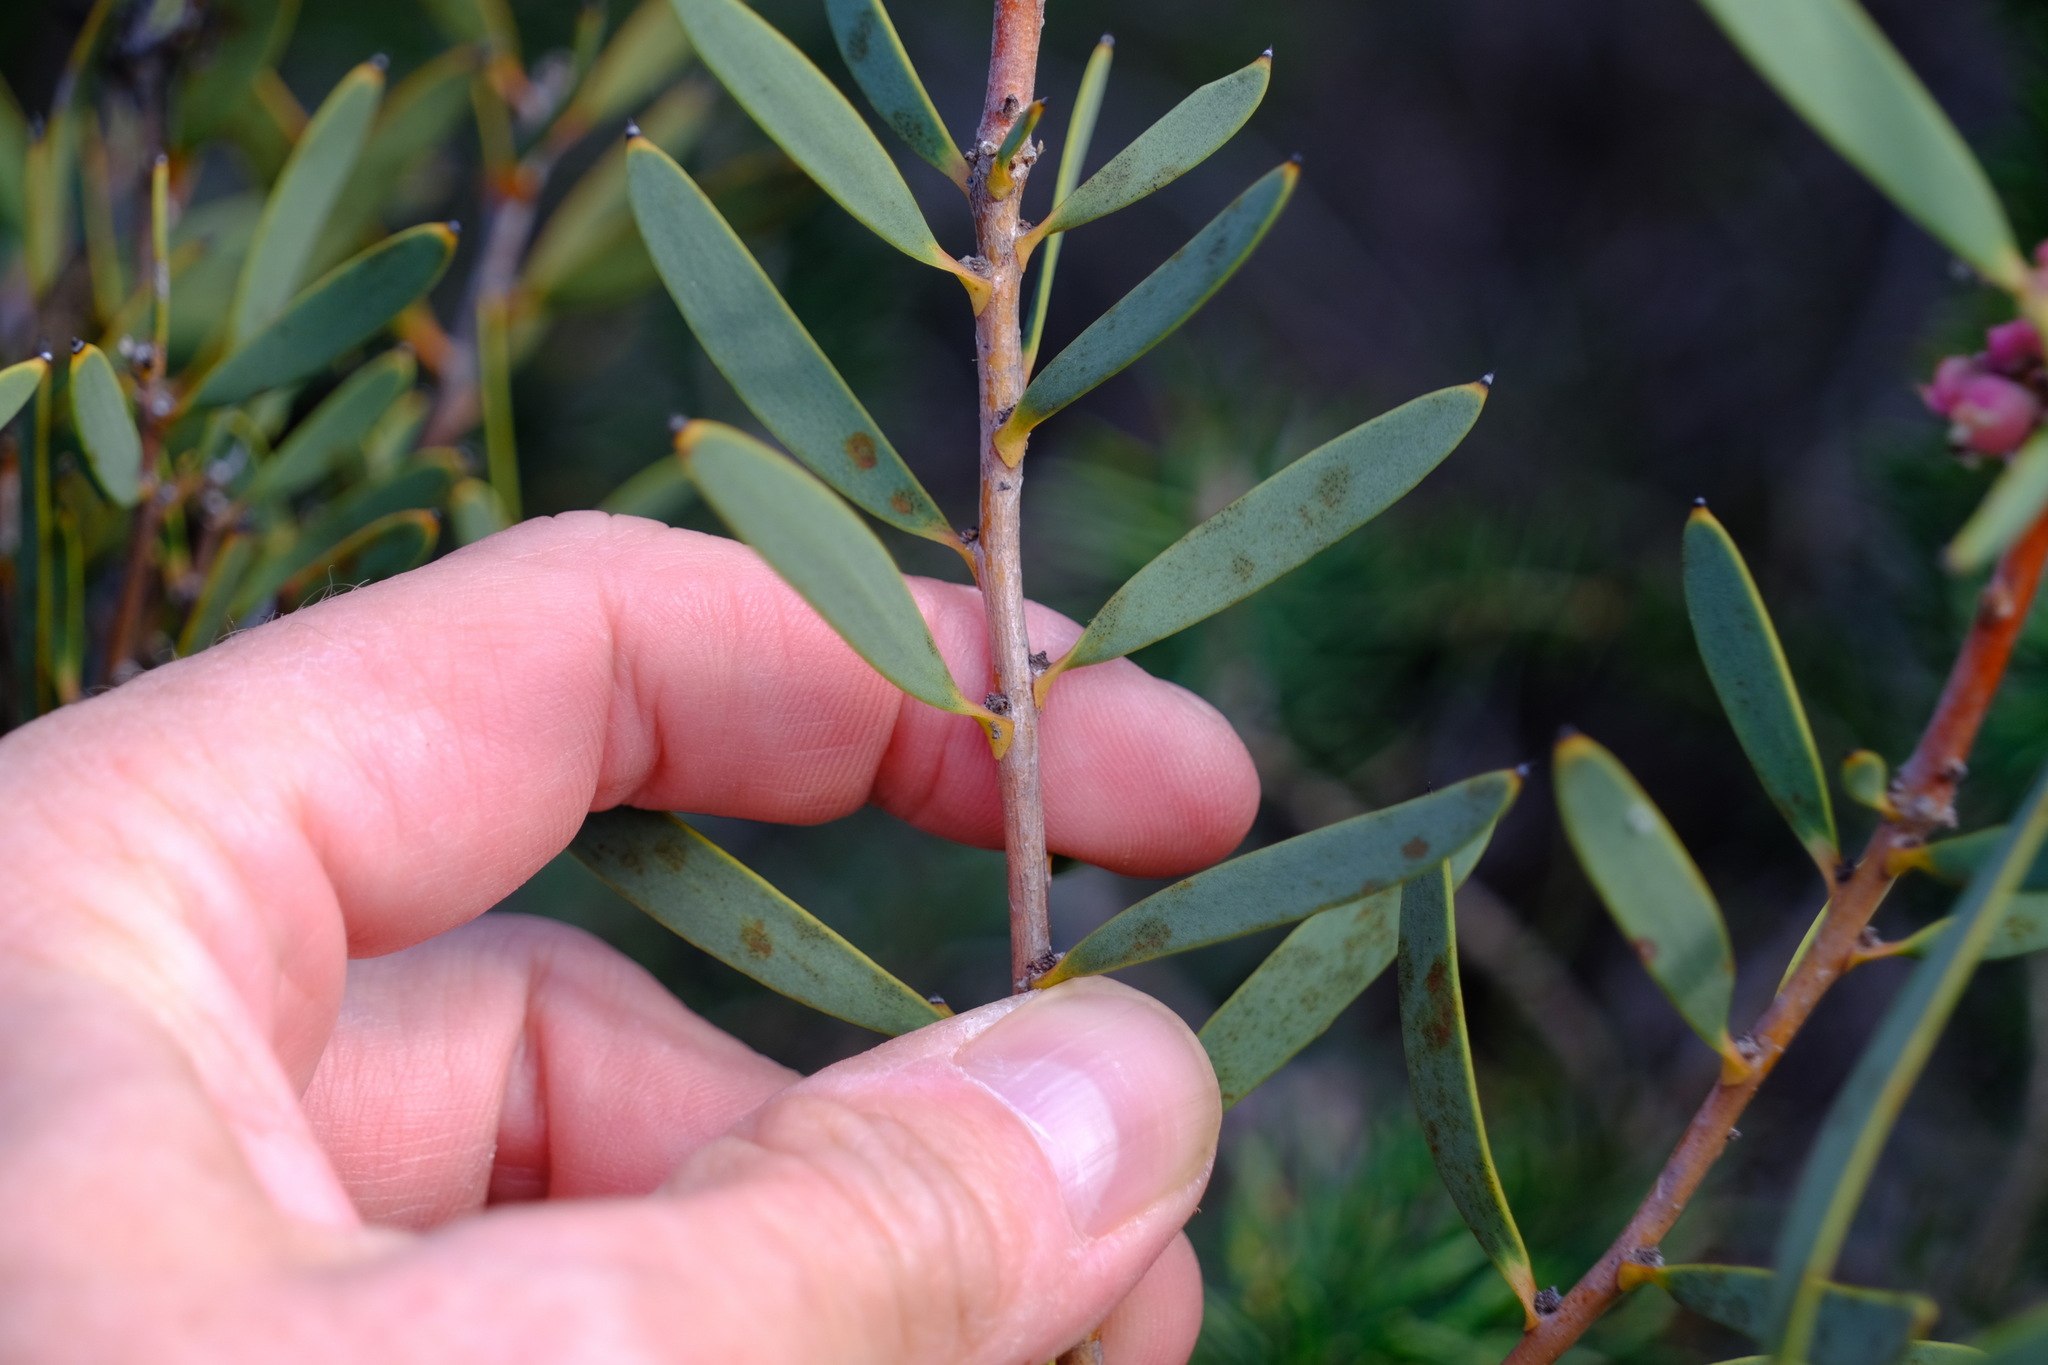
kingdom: Plantae
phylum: Tracheophyta
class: Magnoliopsida
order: Proteales
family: Proteaceae
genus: Hakea
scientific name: Hakea incrassata
